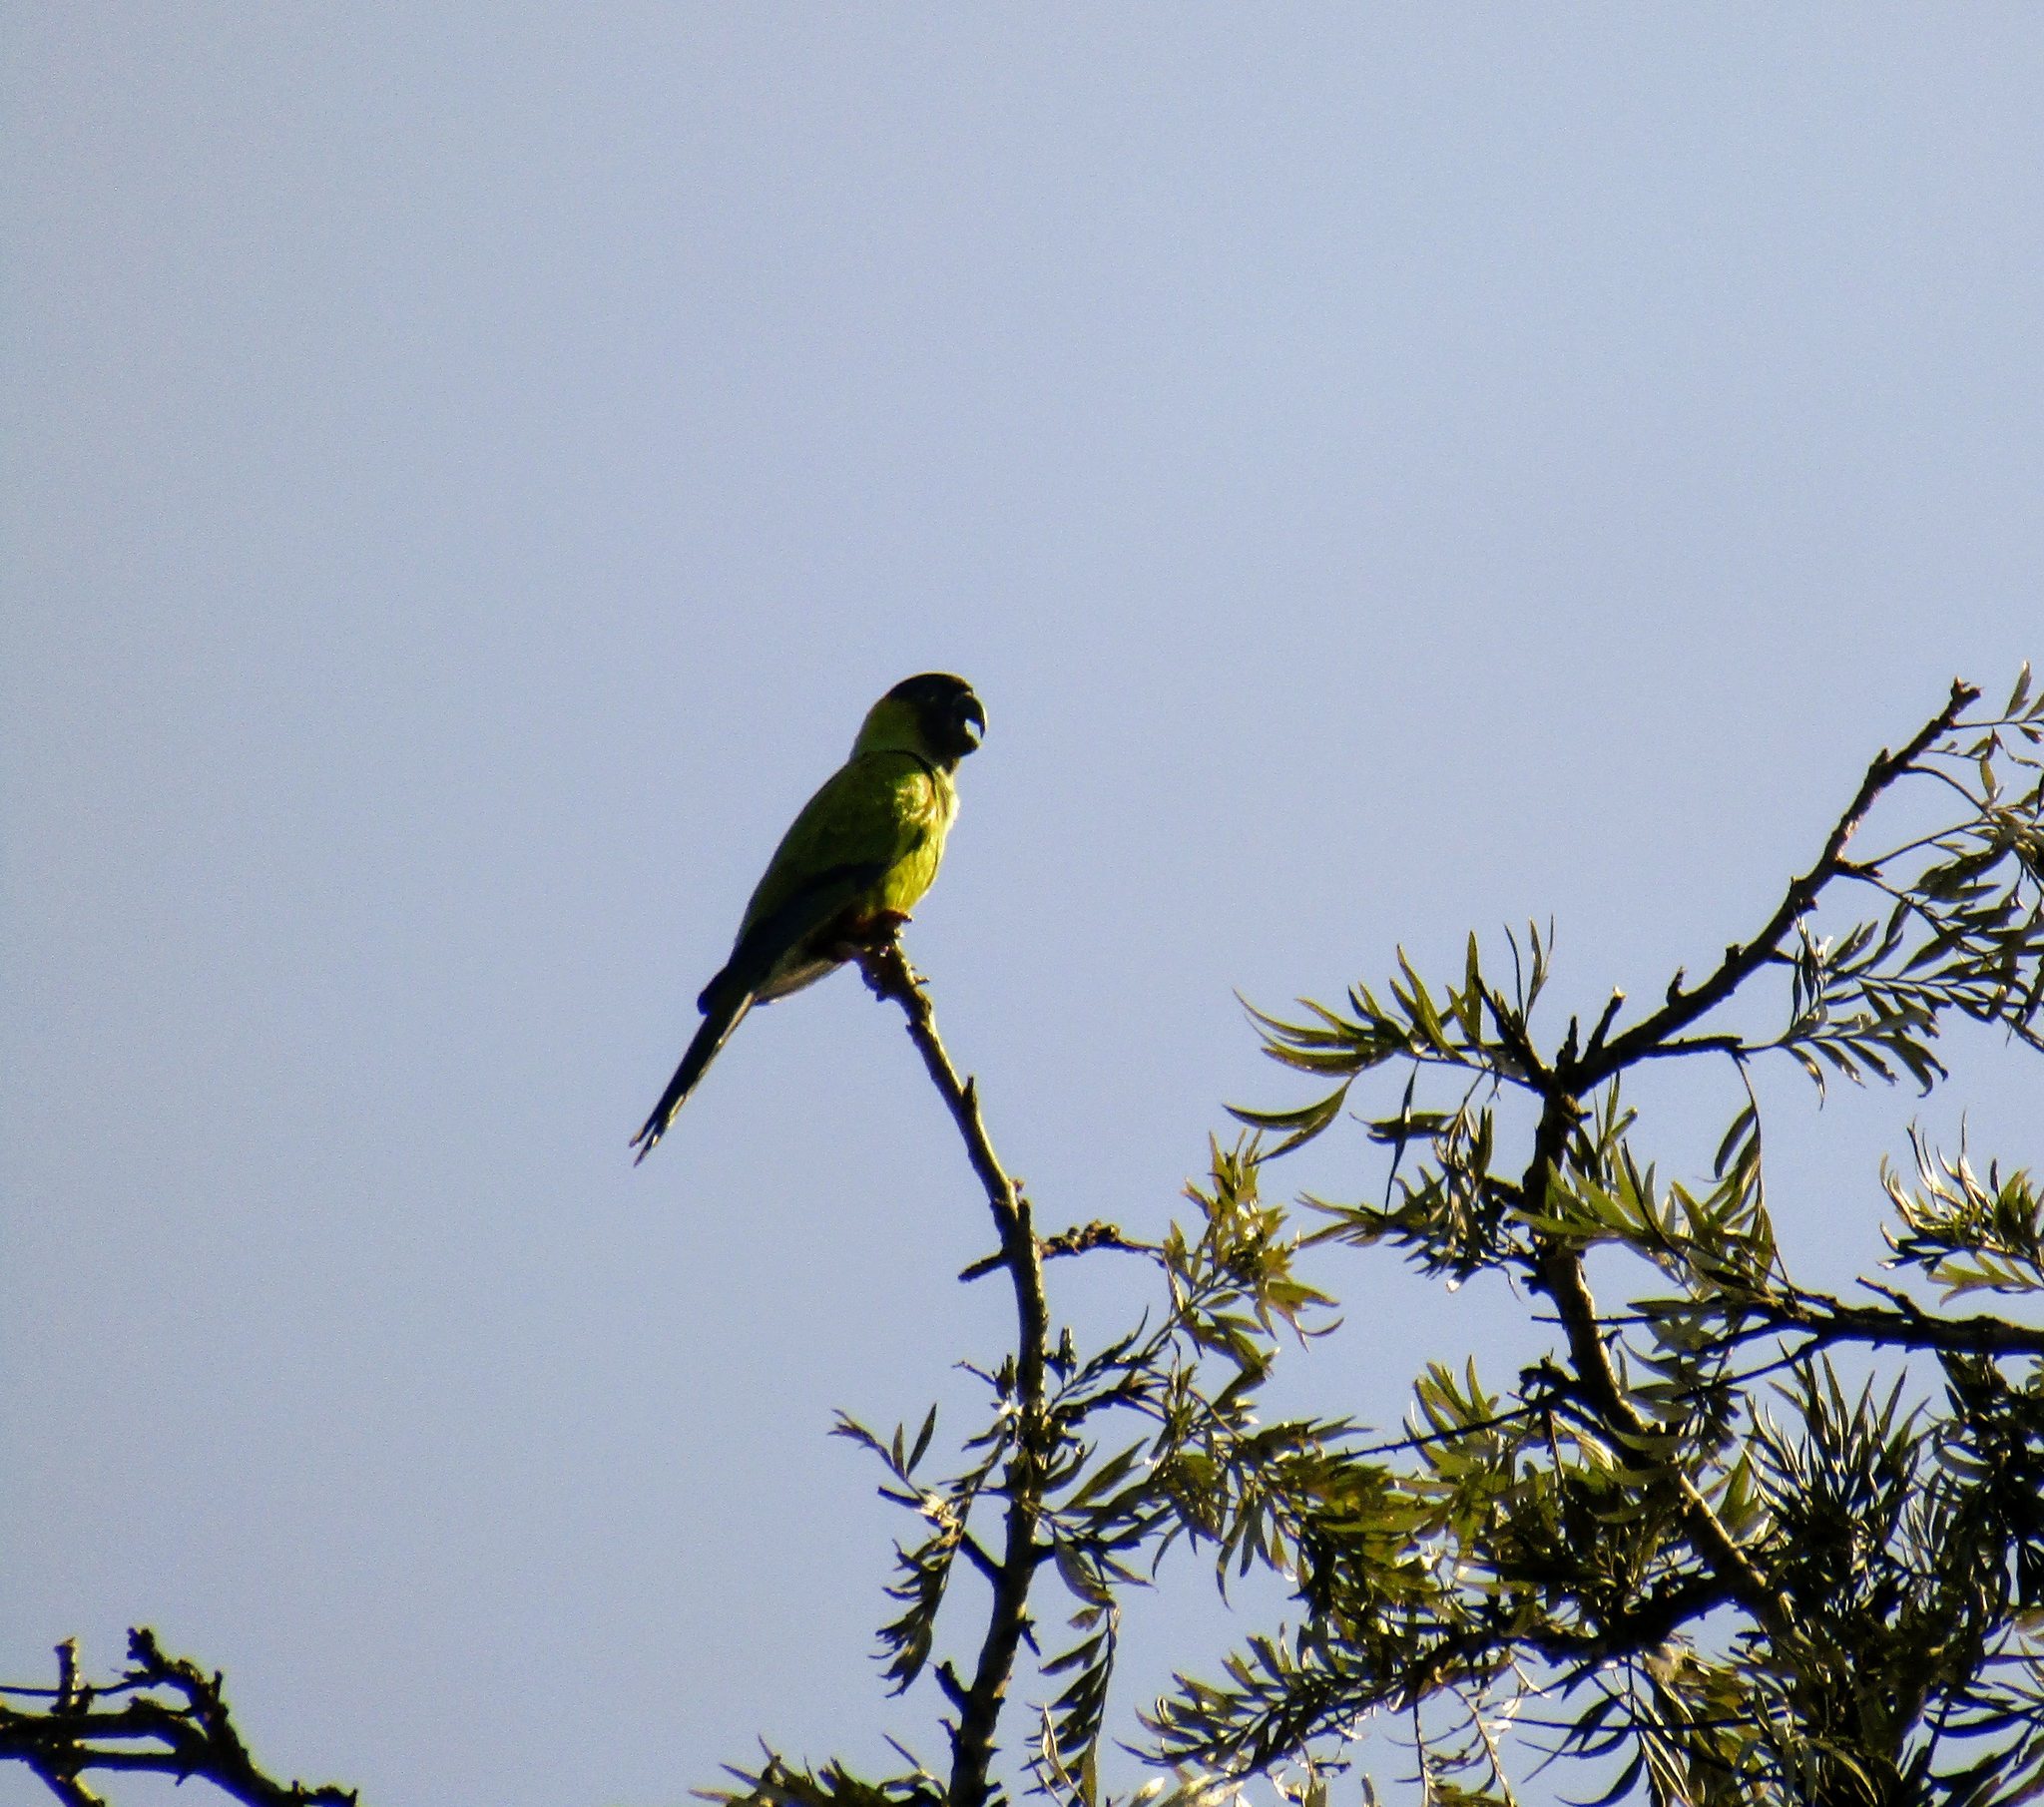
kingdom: Animalia
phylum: Chordata
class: Aves
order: Psittaciformes
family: Psittacidae
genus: Nandayus
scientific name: Nandayus nenday
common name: Nanday parakeet
